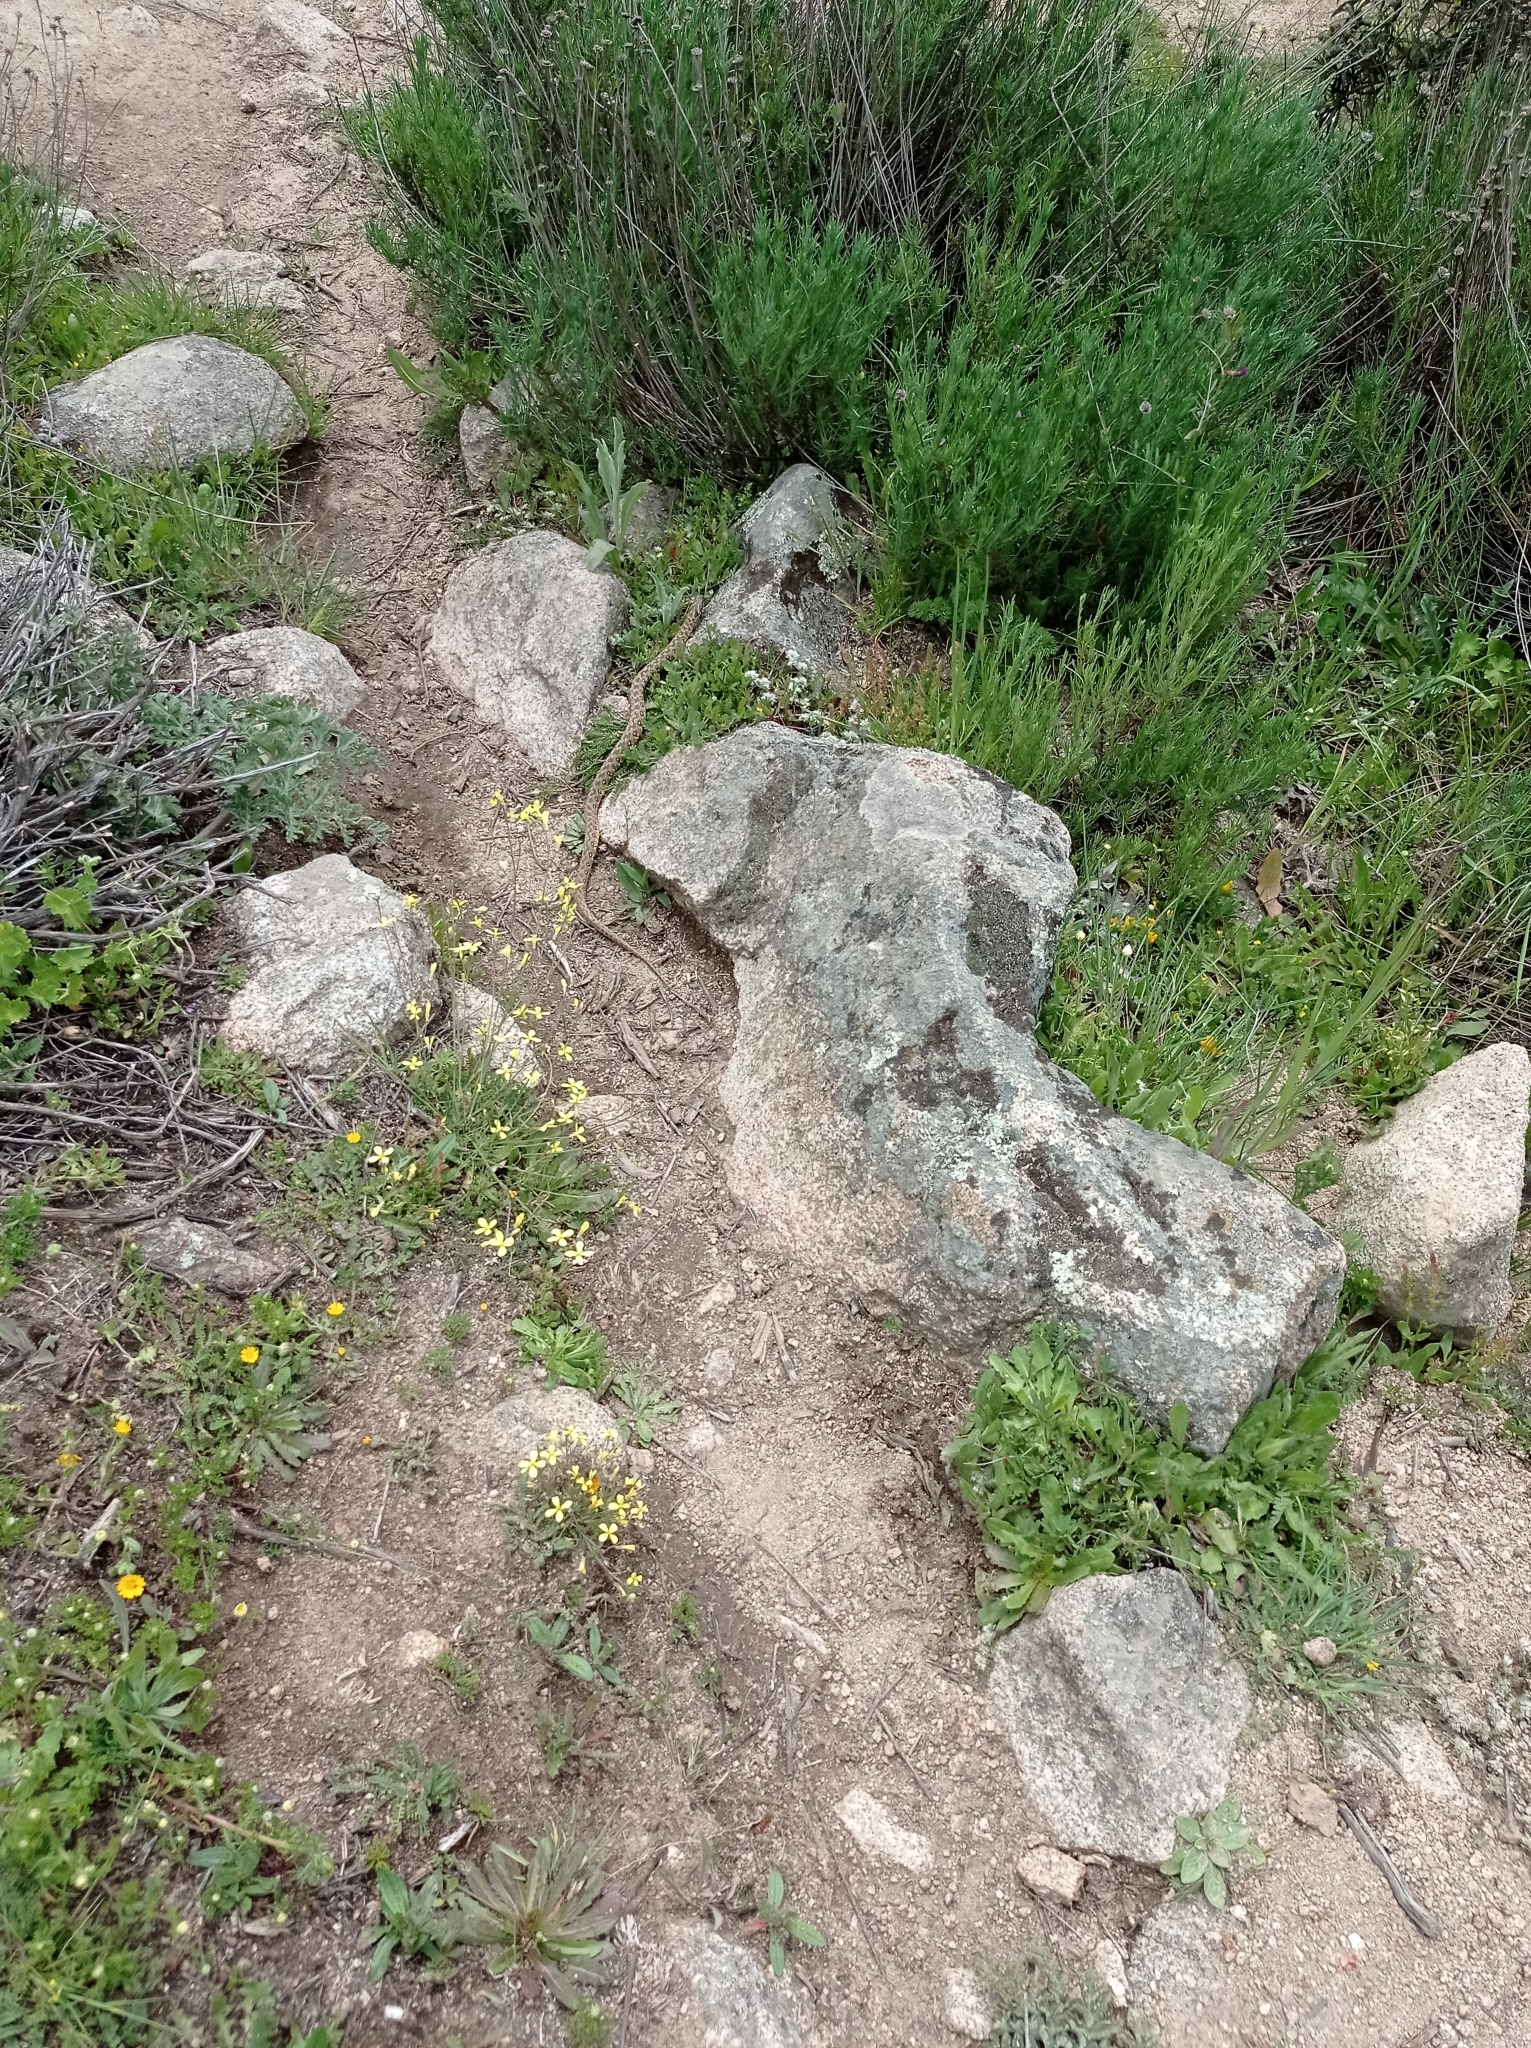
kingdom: Animalia
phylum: Chordata
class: Squamata
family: Colubridae
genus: Natrix
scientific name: Natrix maura
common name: Viperine water snake
